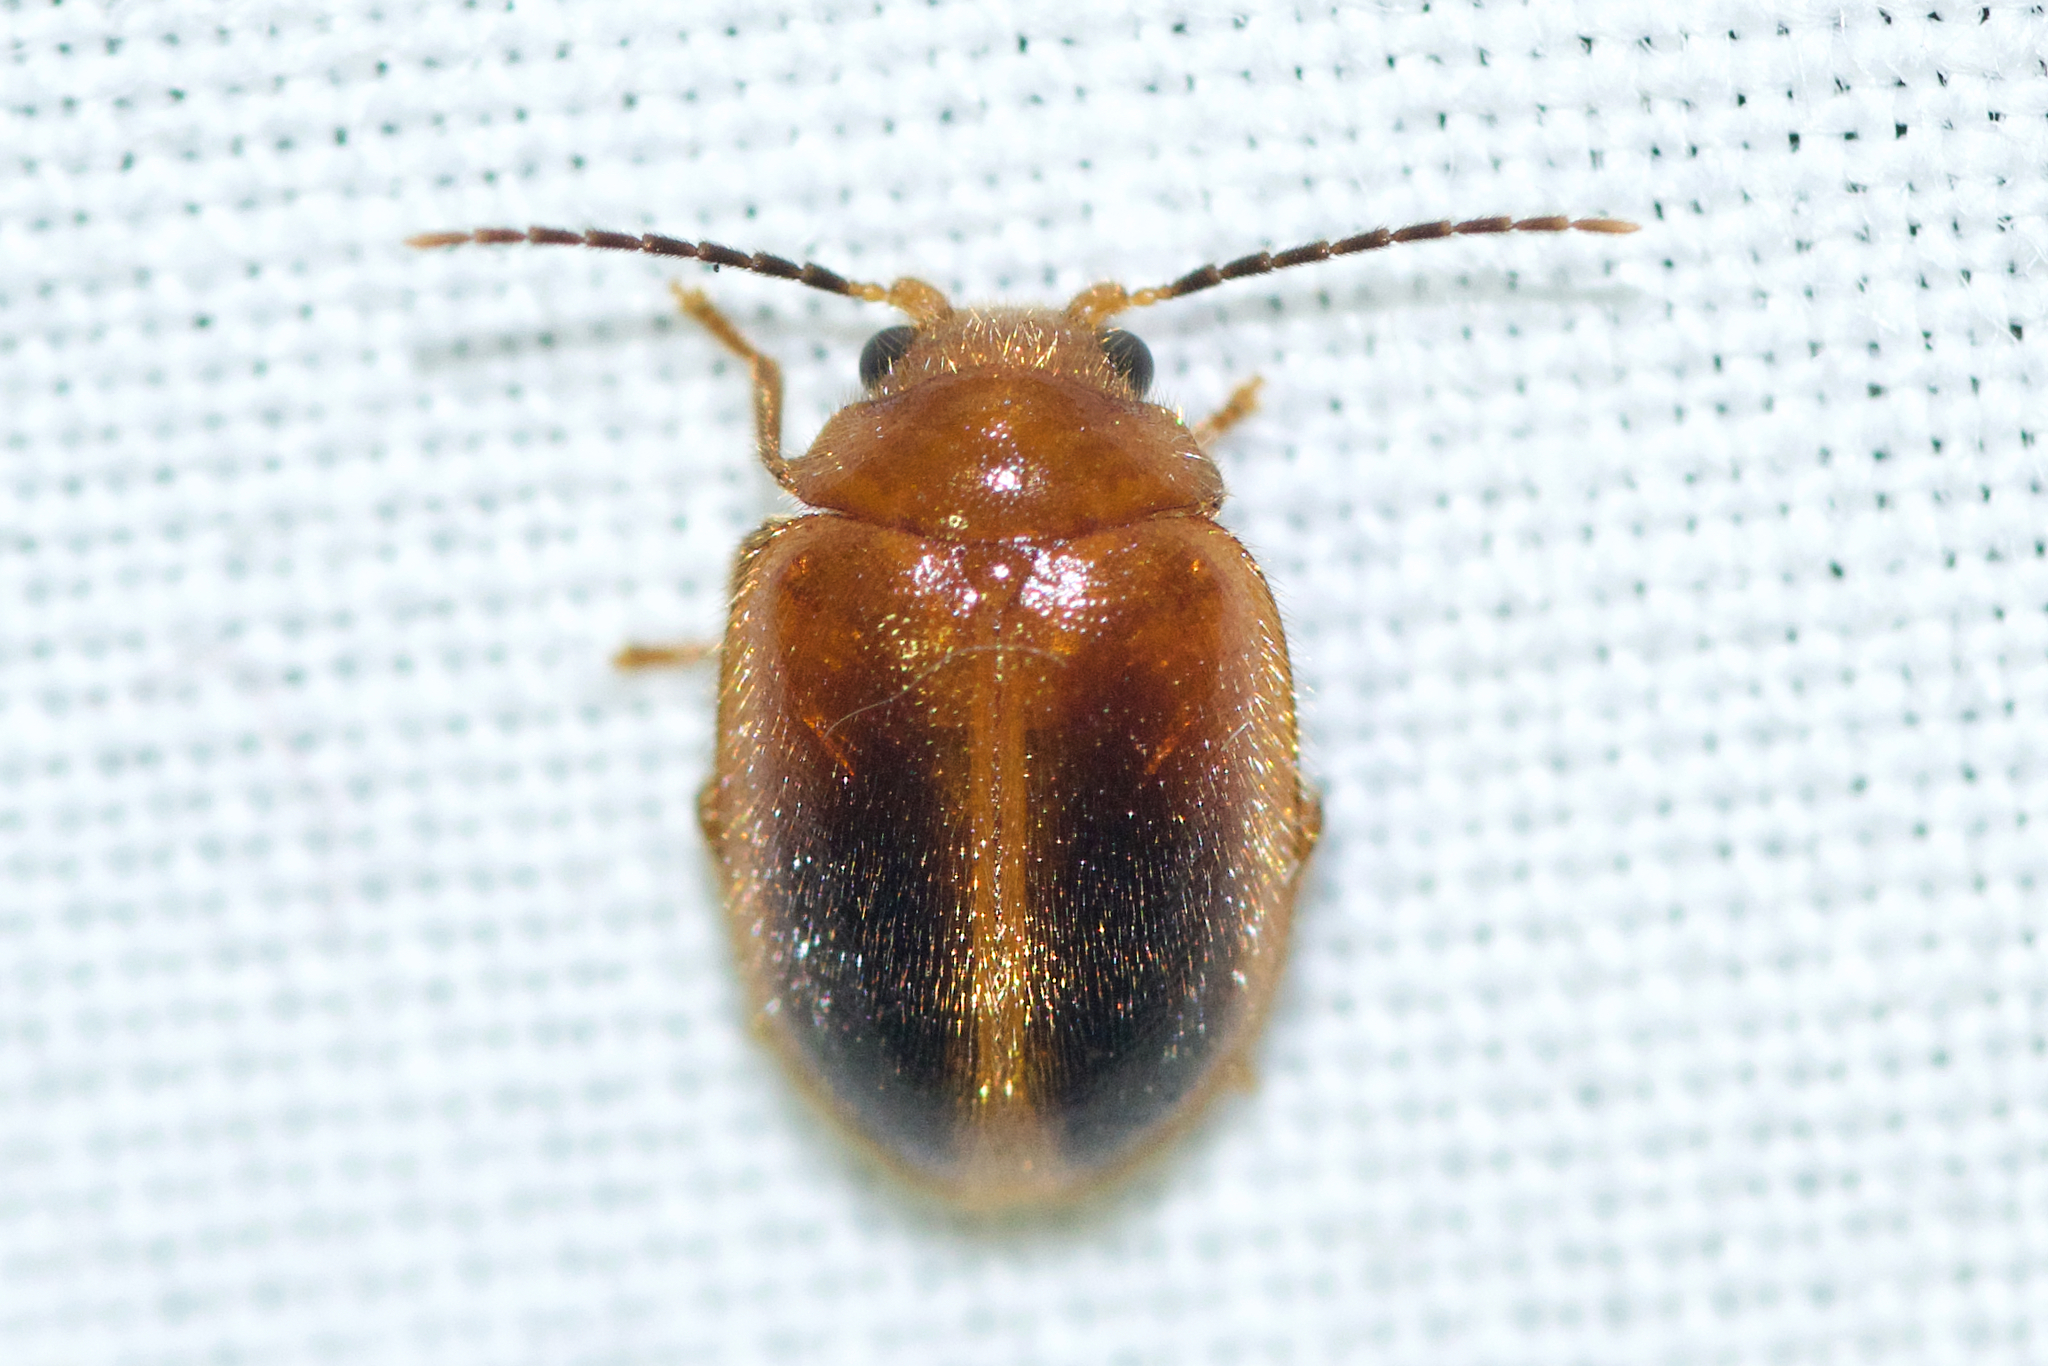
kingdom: Animalia
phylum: Arthropoda
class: Insecta
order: Coleoptera
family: Scirtidae
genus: Prionocyphon
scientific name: Prionocyphon limbatus
